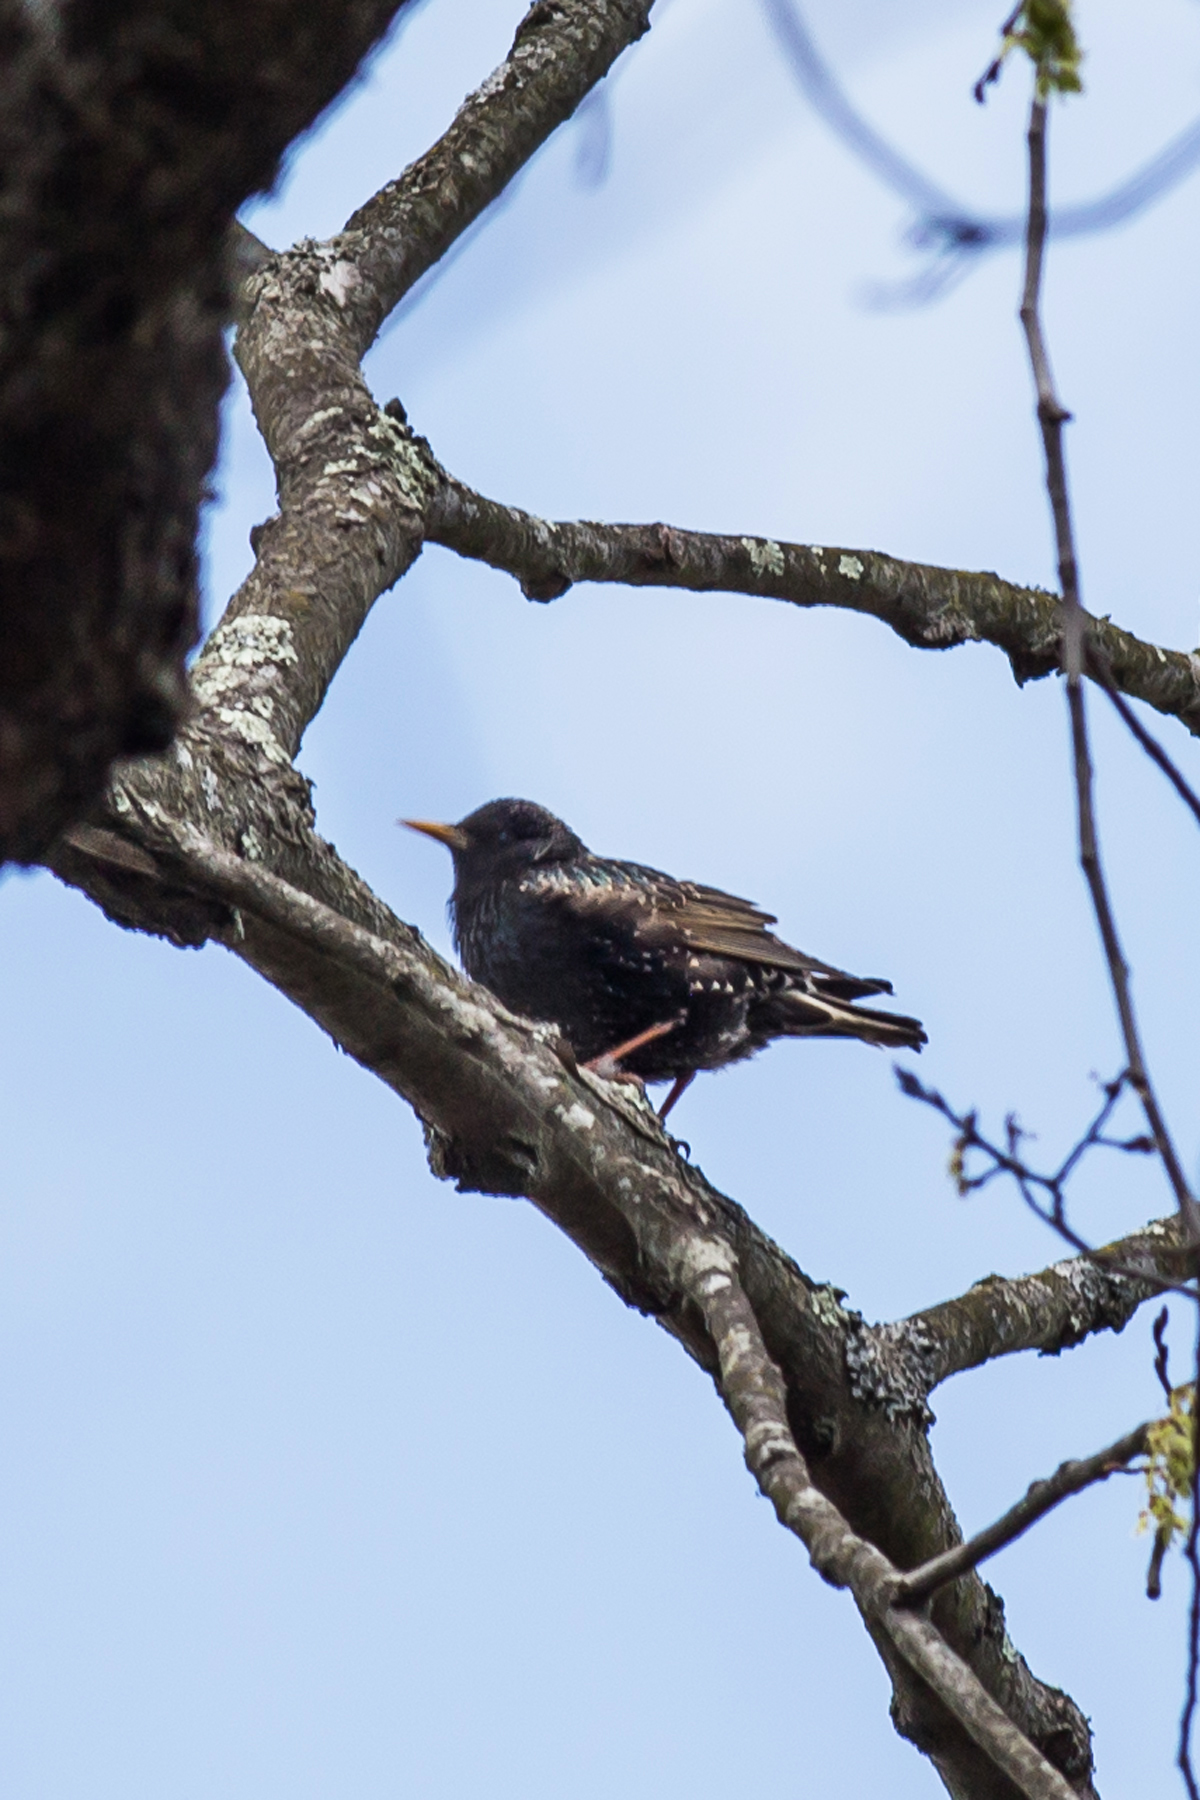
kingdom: Animalia
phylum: Chordata
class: Aves
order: Passeriformes
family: Sturnidae
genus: Sturnus
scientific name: Sturnus vulgaris
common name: Common starling
